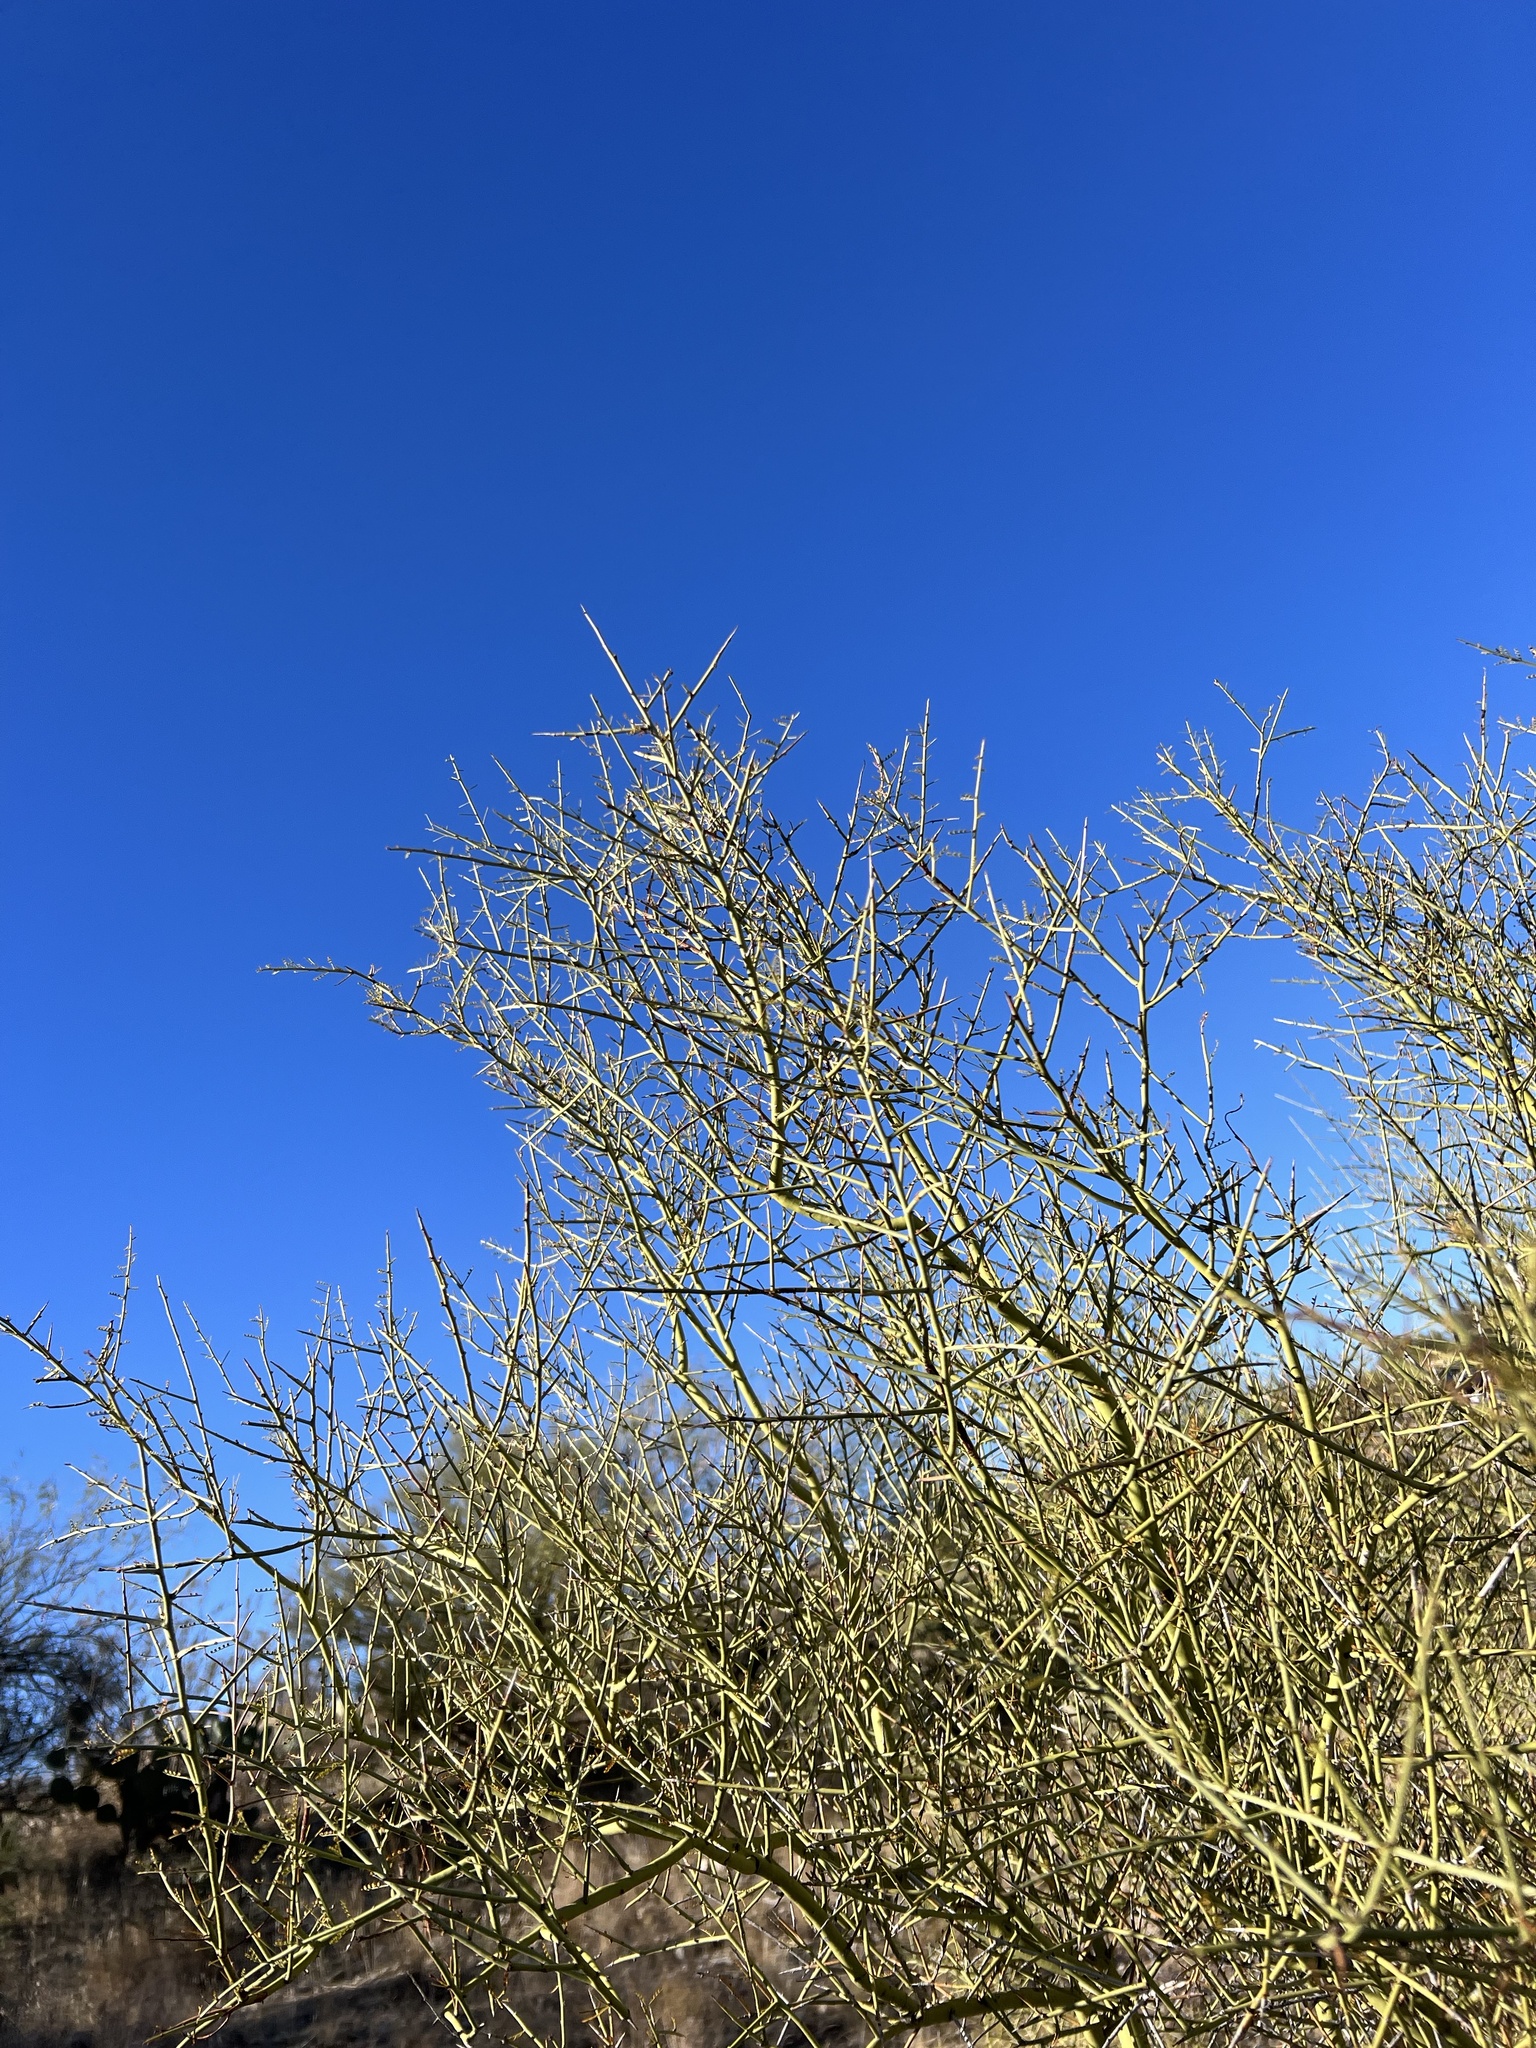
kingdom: Plantae
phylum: Tracheophyta
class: Magnoliopsida
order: Fabales
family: Fabaceae
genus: Parkinsonia
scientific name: Parkinsonia microphylla
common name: Yellow paloverde
